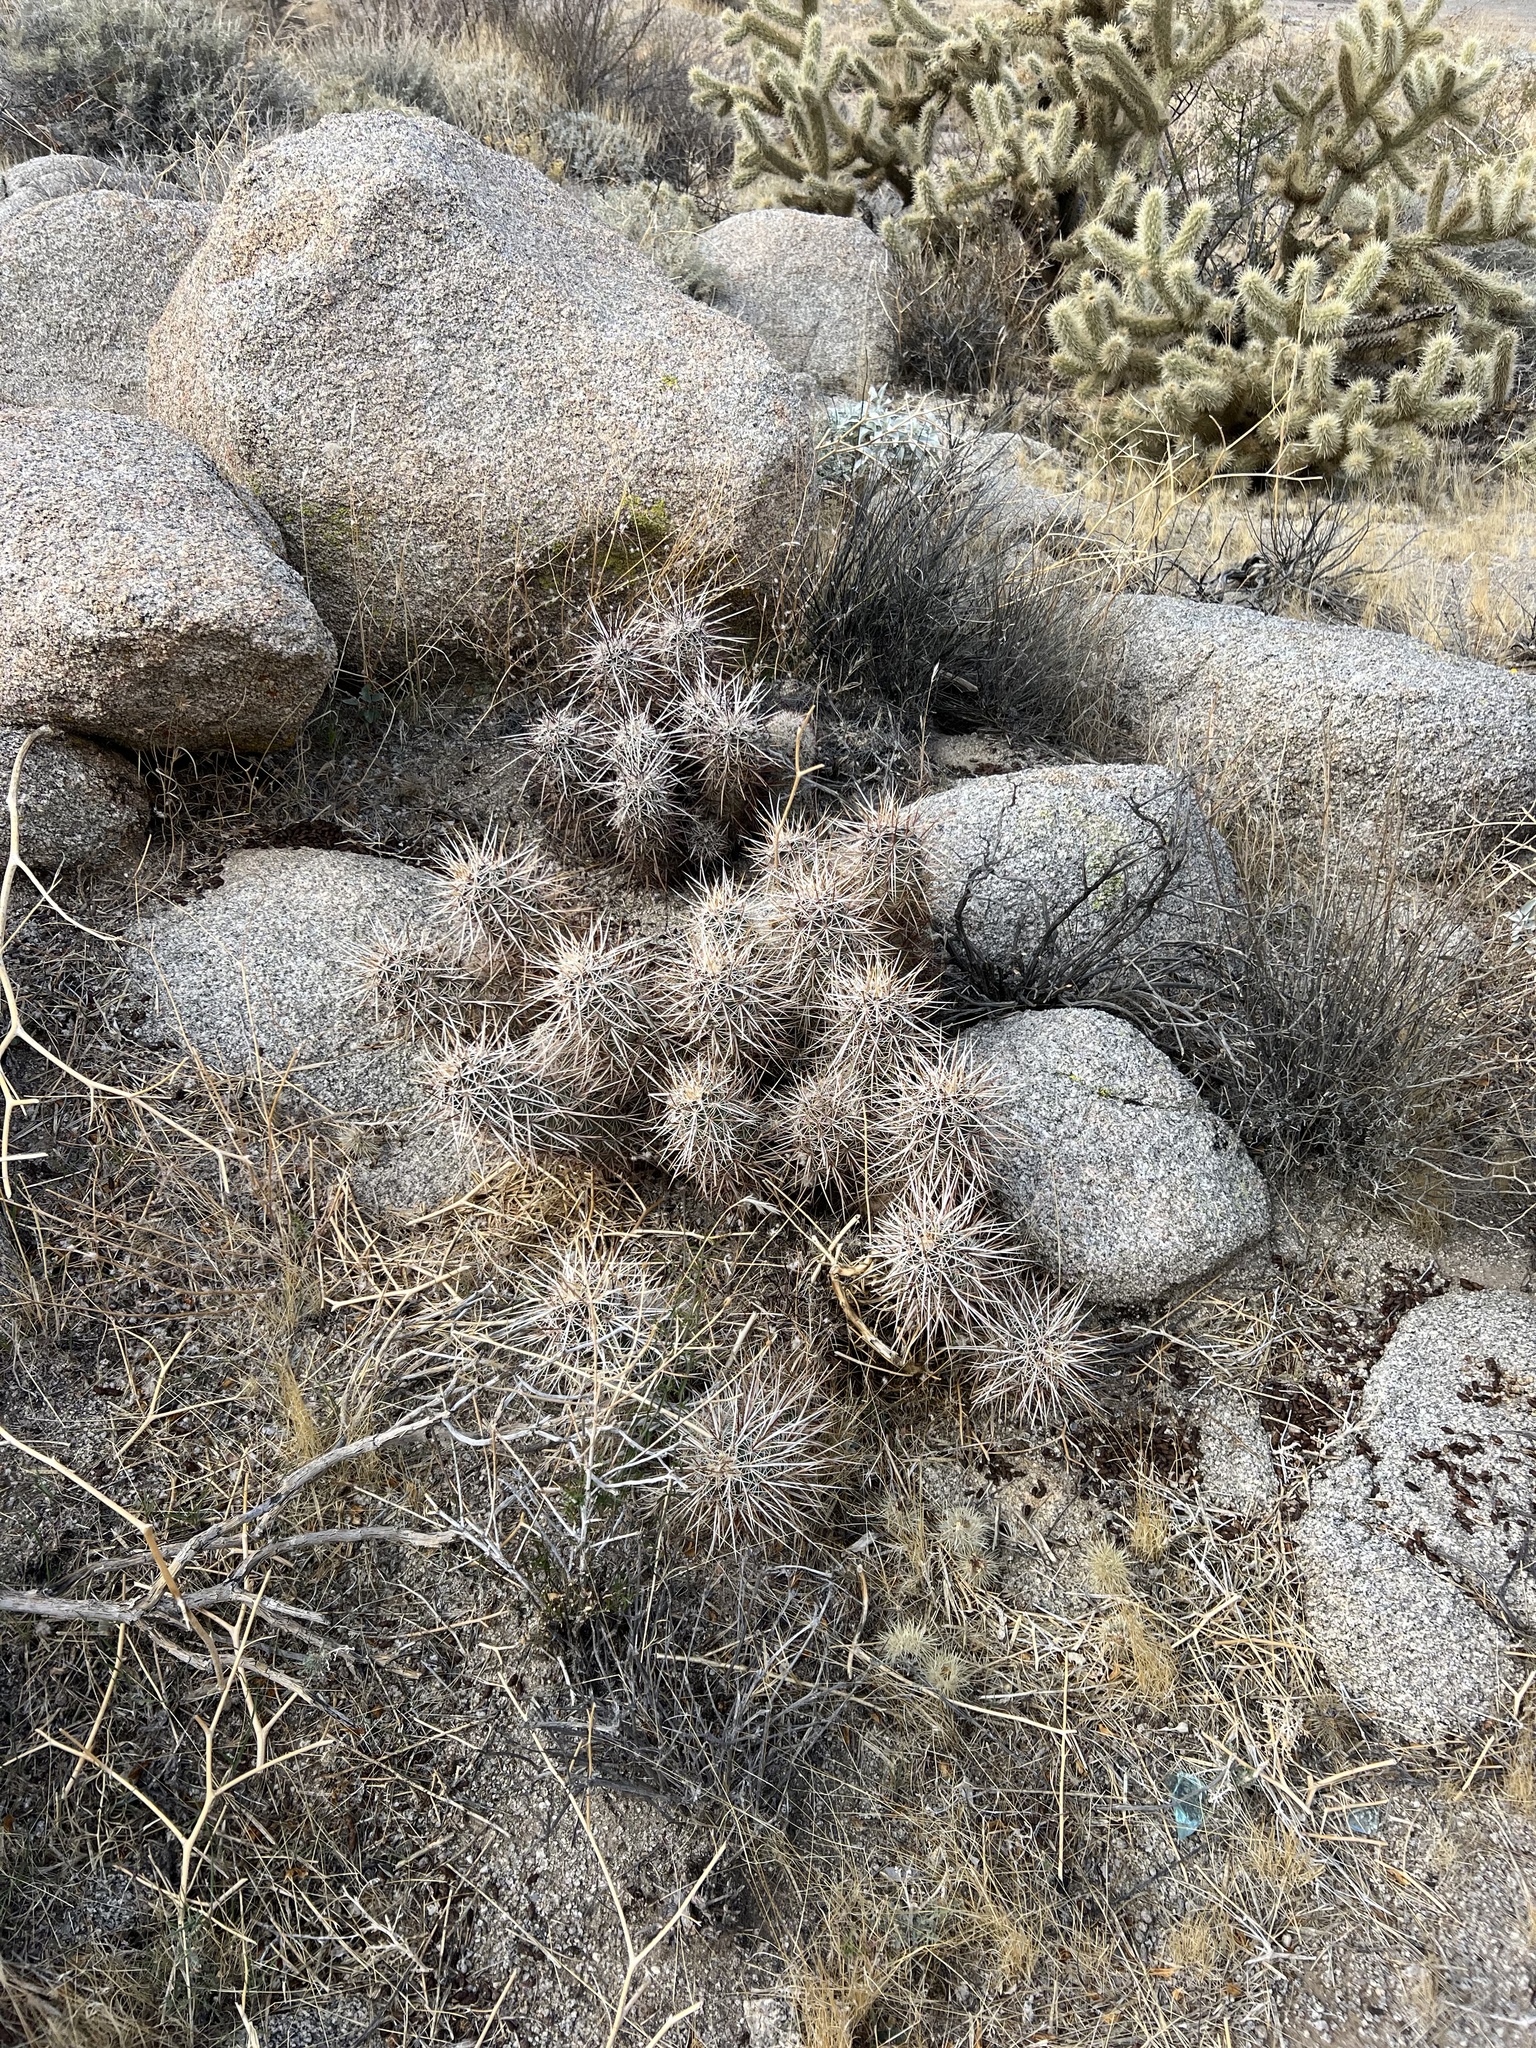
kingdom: Plantae
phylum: Tracheophyta
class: Magnoliopsida
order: Caryophyllales
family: Cactaceae
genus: Echinocereus
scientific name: Echinocereus engelmannii
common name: Engelmann's hedgehog cactus
